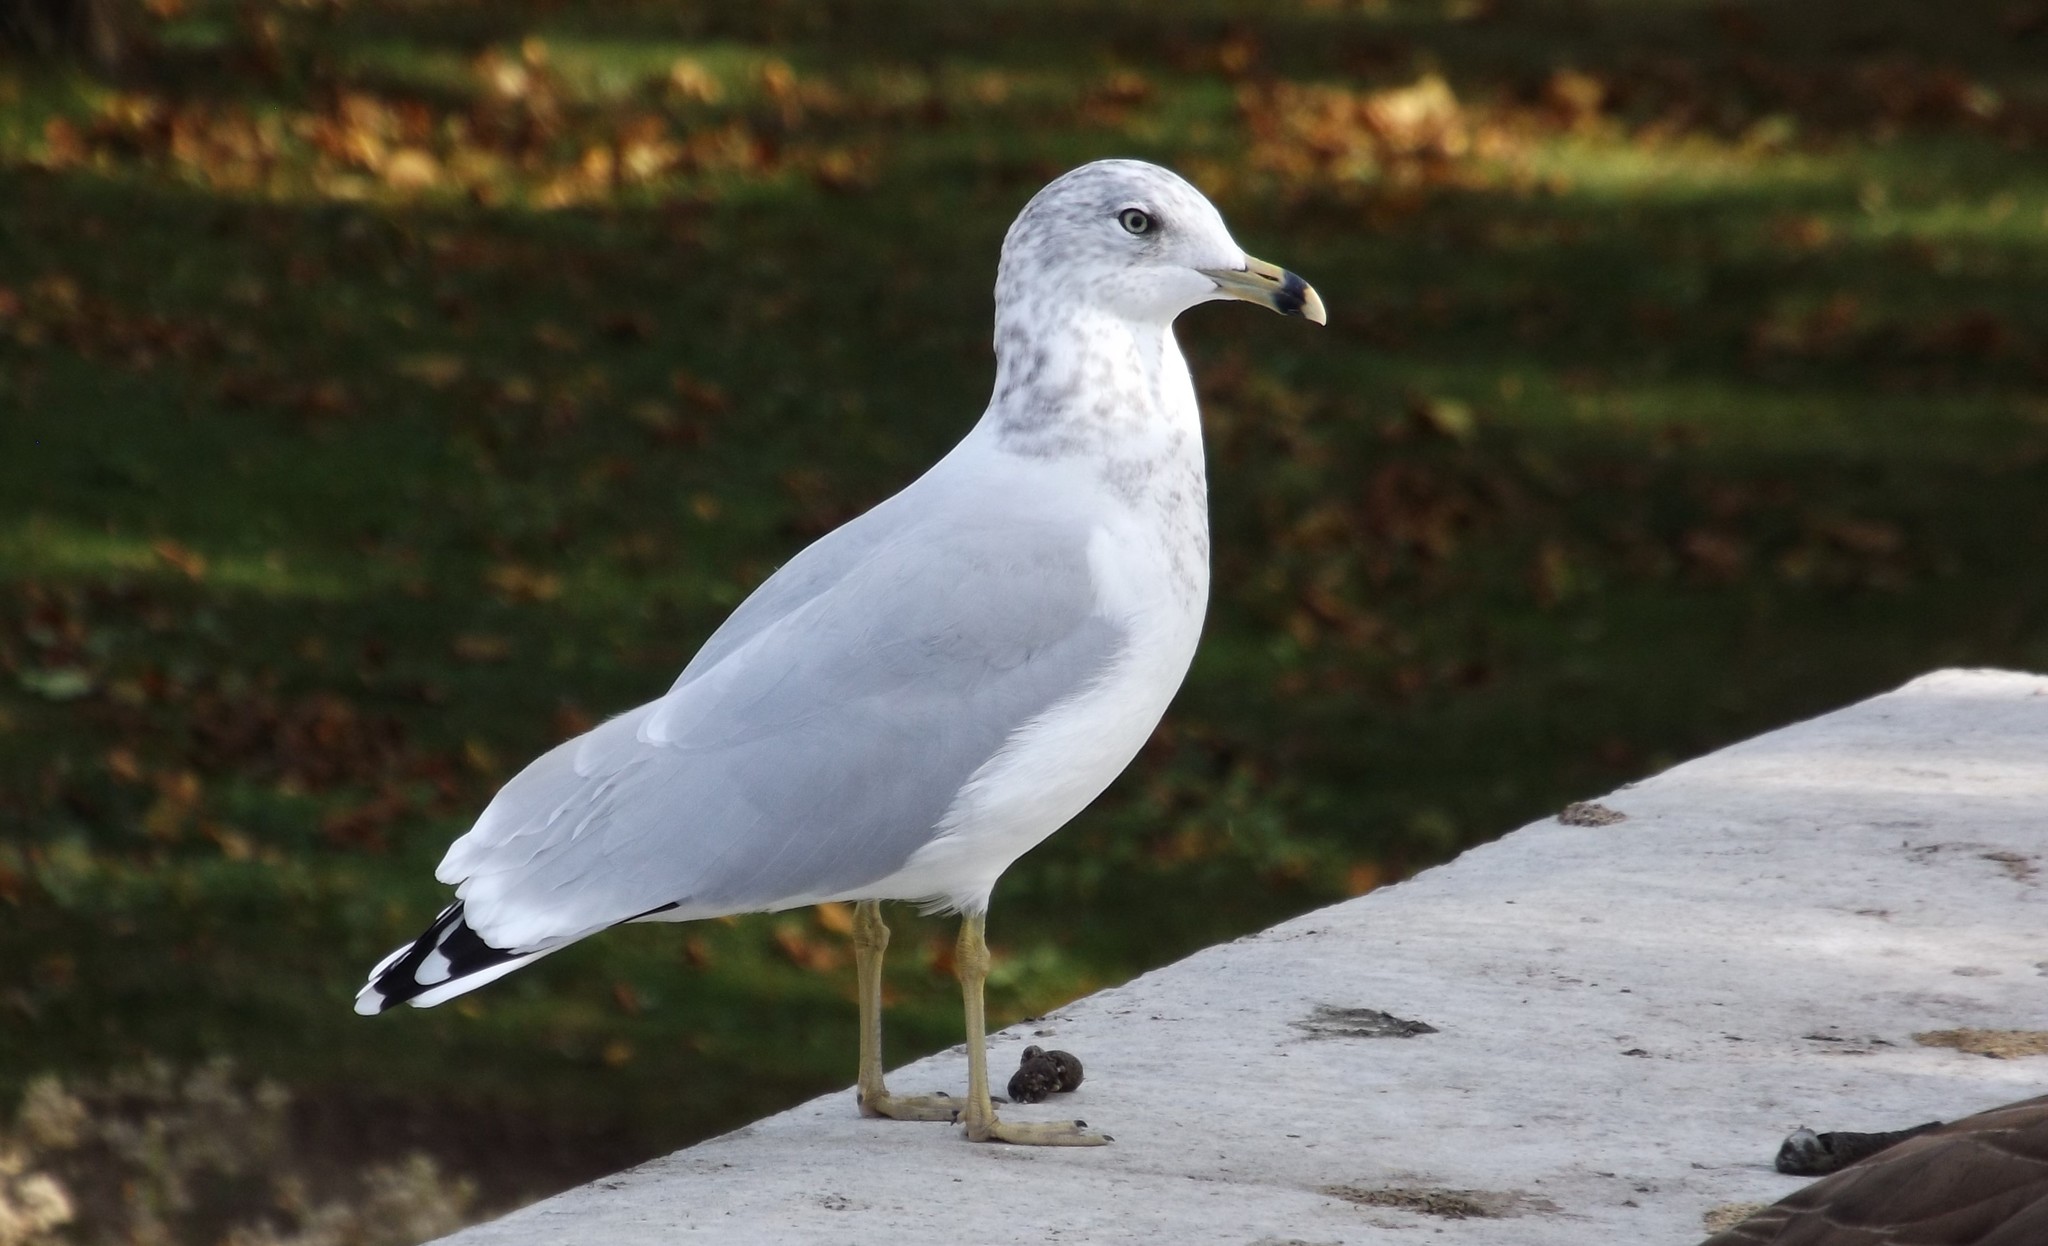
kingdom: Animalia
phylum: Chordata
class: Aves
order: Charadriiformes
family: Laridae
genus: Larus
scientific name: Larus delawarensis
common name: Ring-billed gull
